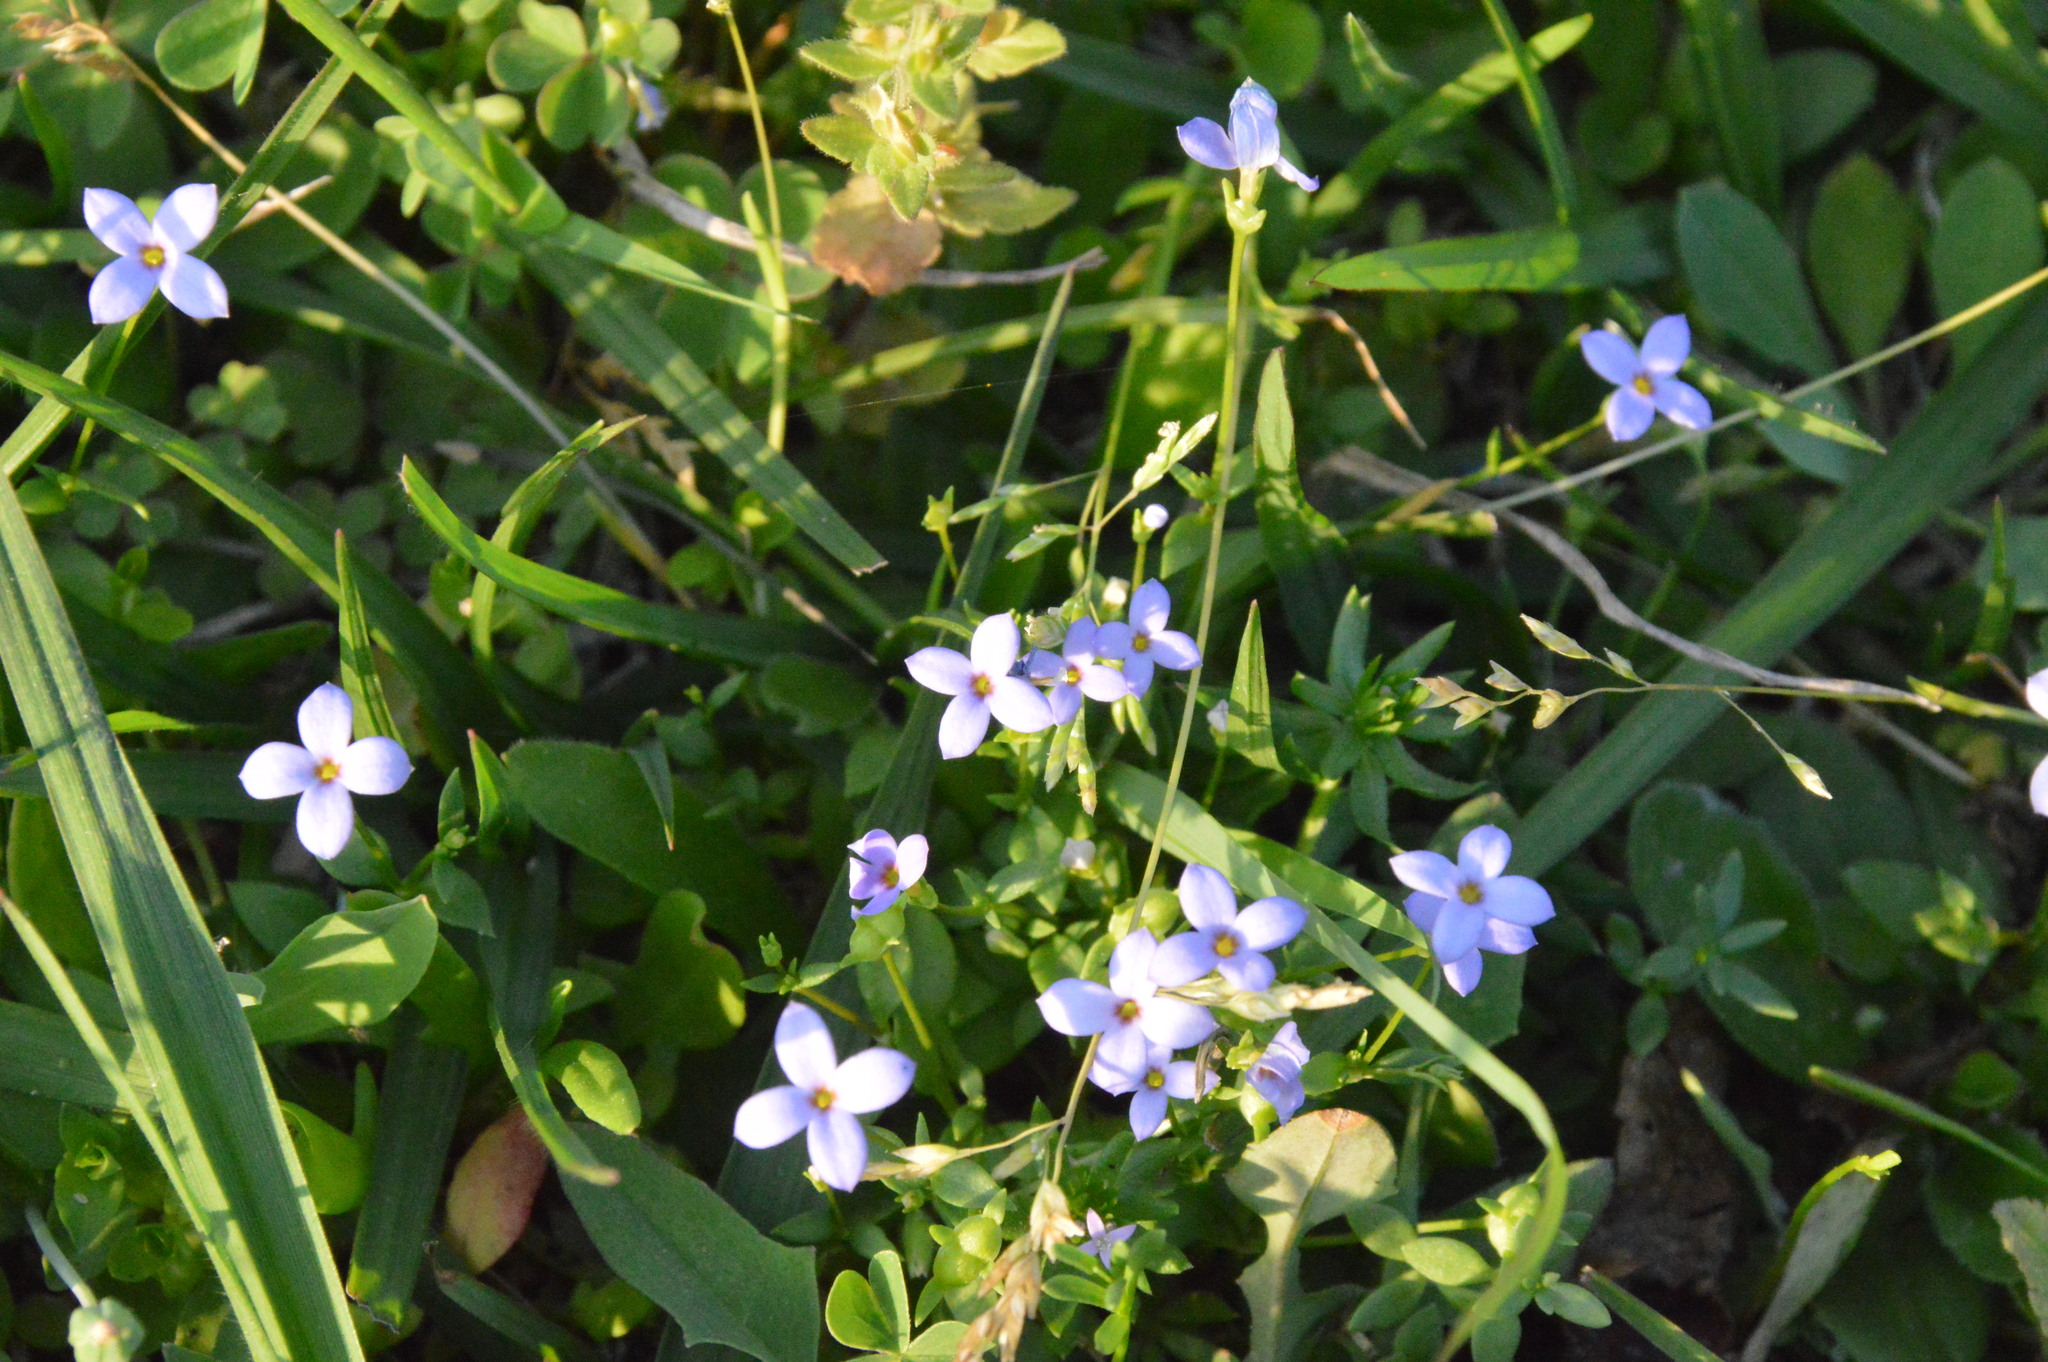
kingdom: Plantae
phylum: Tracheophyta
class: Magnoliopsida
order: Gentianales
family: Rubiaceae
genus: Houstonia
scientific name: Houstonia pusilla
